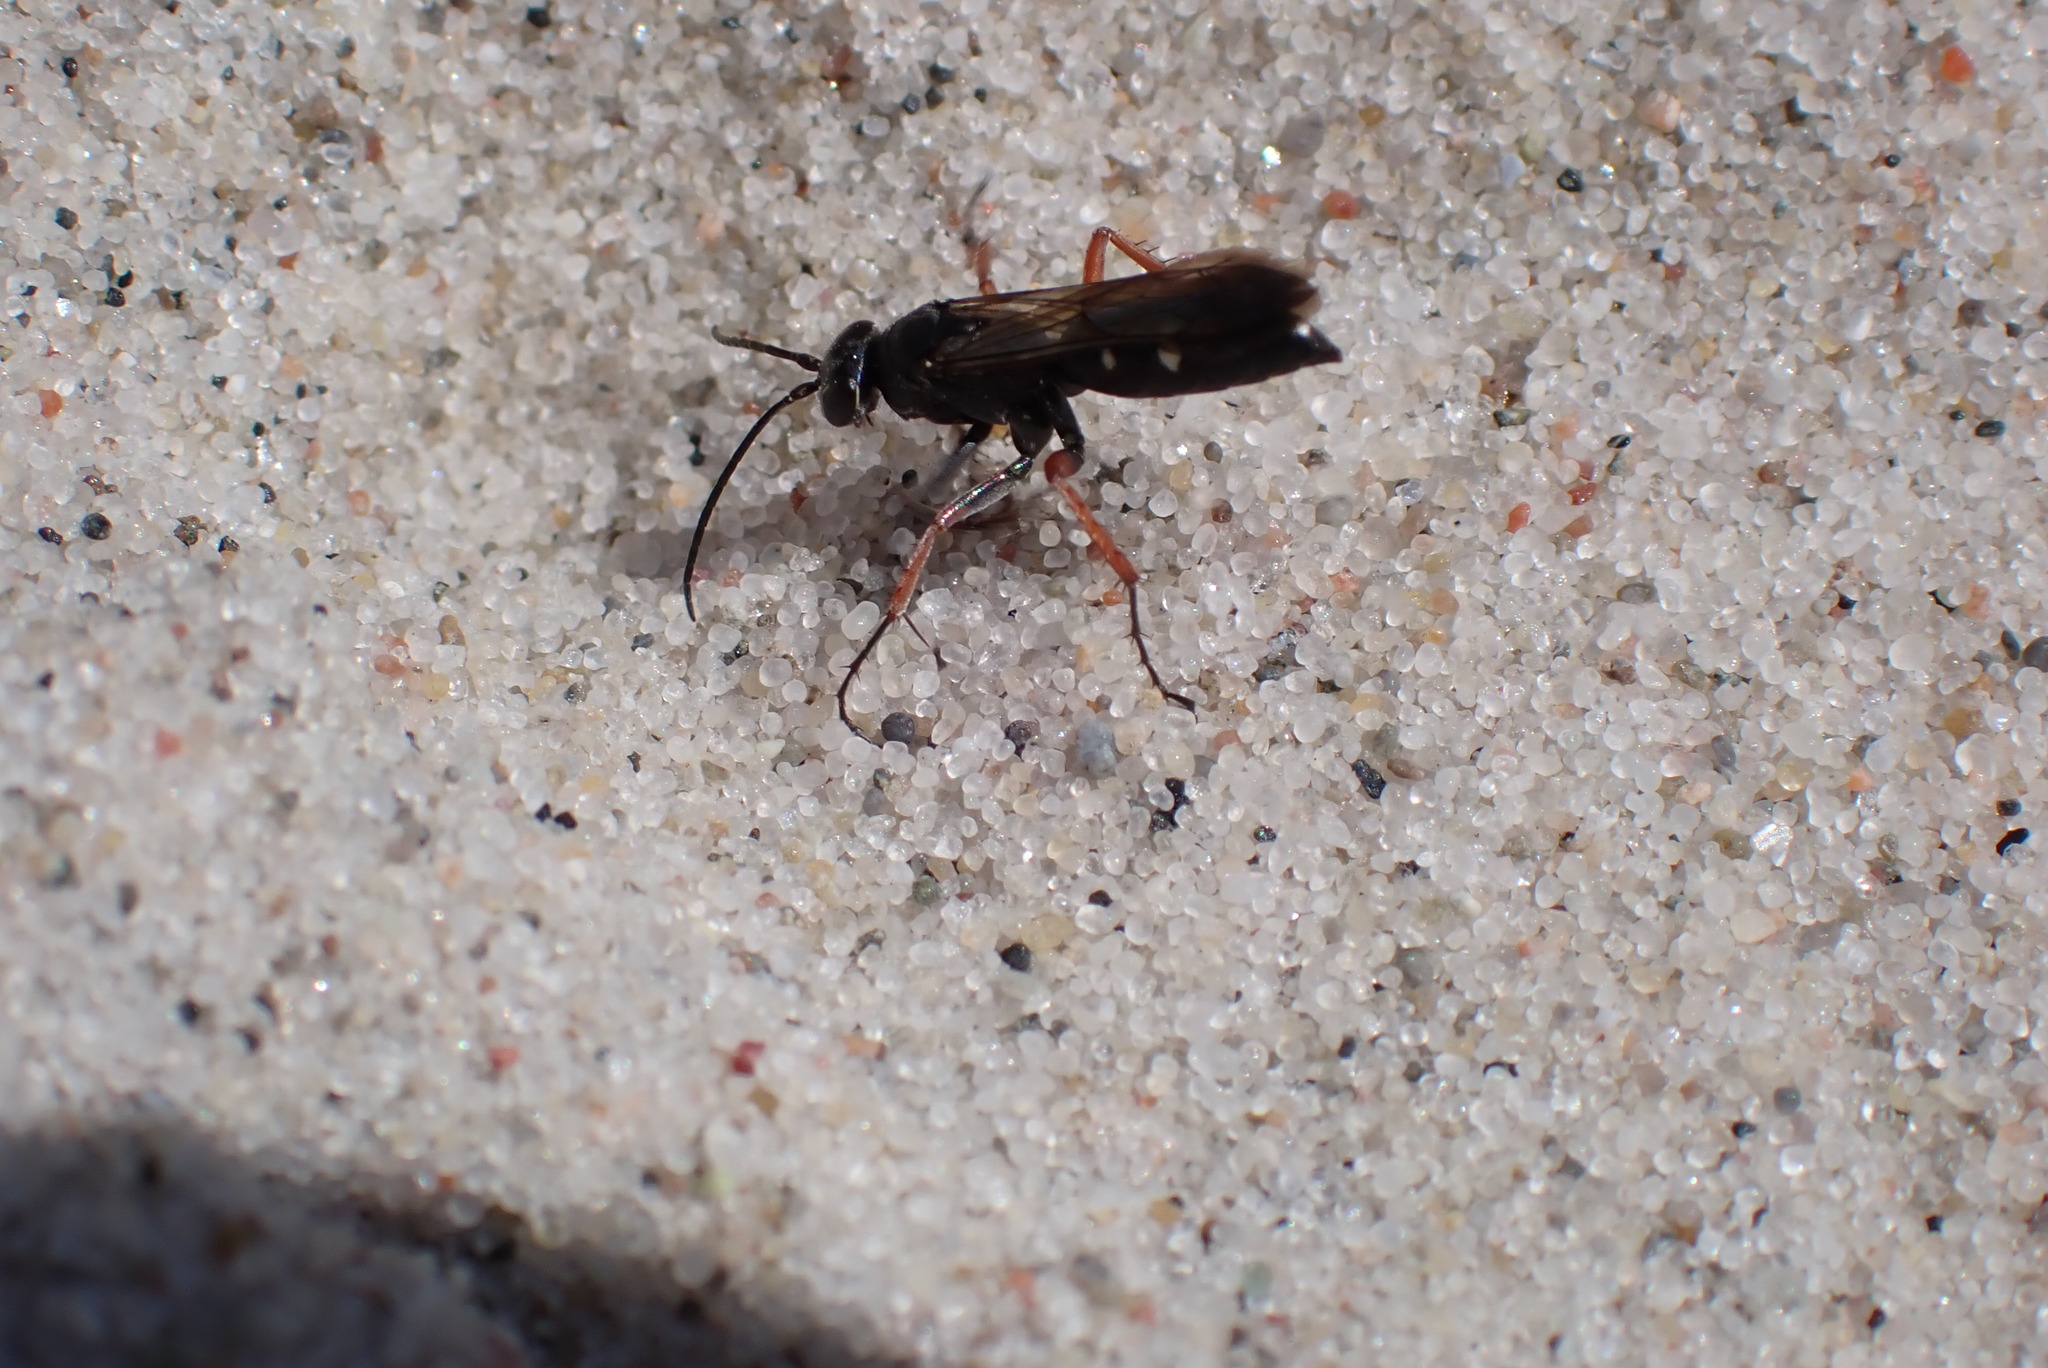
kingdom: Animalia
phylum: Arthropoda
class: Insecta
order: Hymenoptera
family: Pompilidae
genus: Episyron
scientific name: Episyron rufipes
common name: Red legged spider wasp
